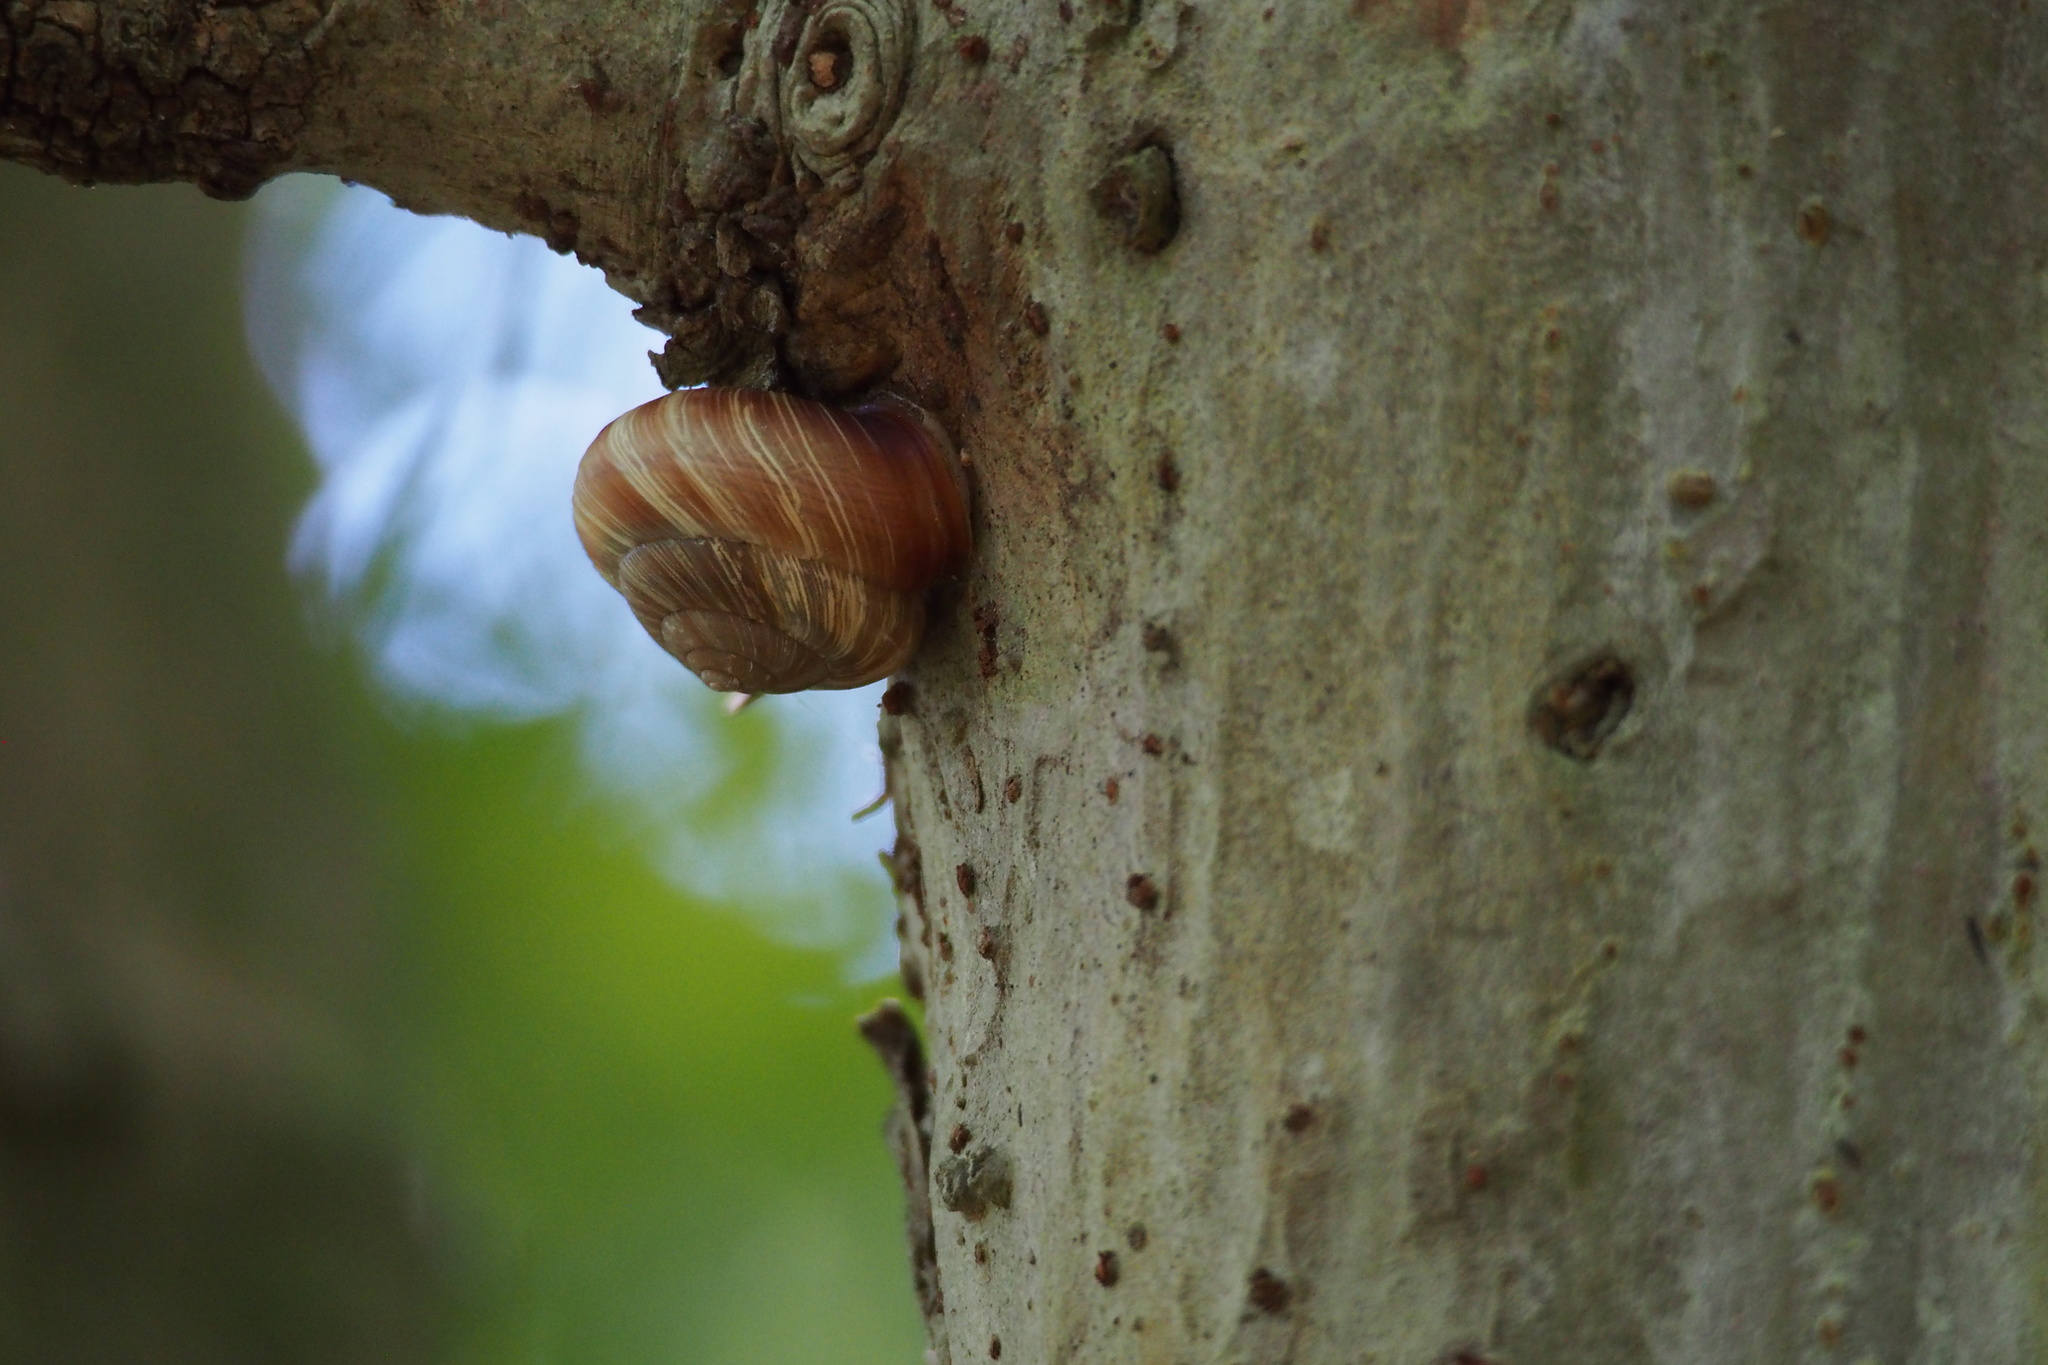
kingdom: Animalia
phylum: Mollusca
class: Gastropoda
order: Stylommatophora
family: Camaenidae
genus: Euhadra
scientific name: Euhadra congenita
